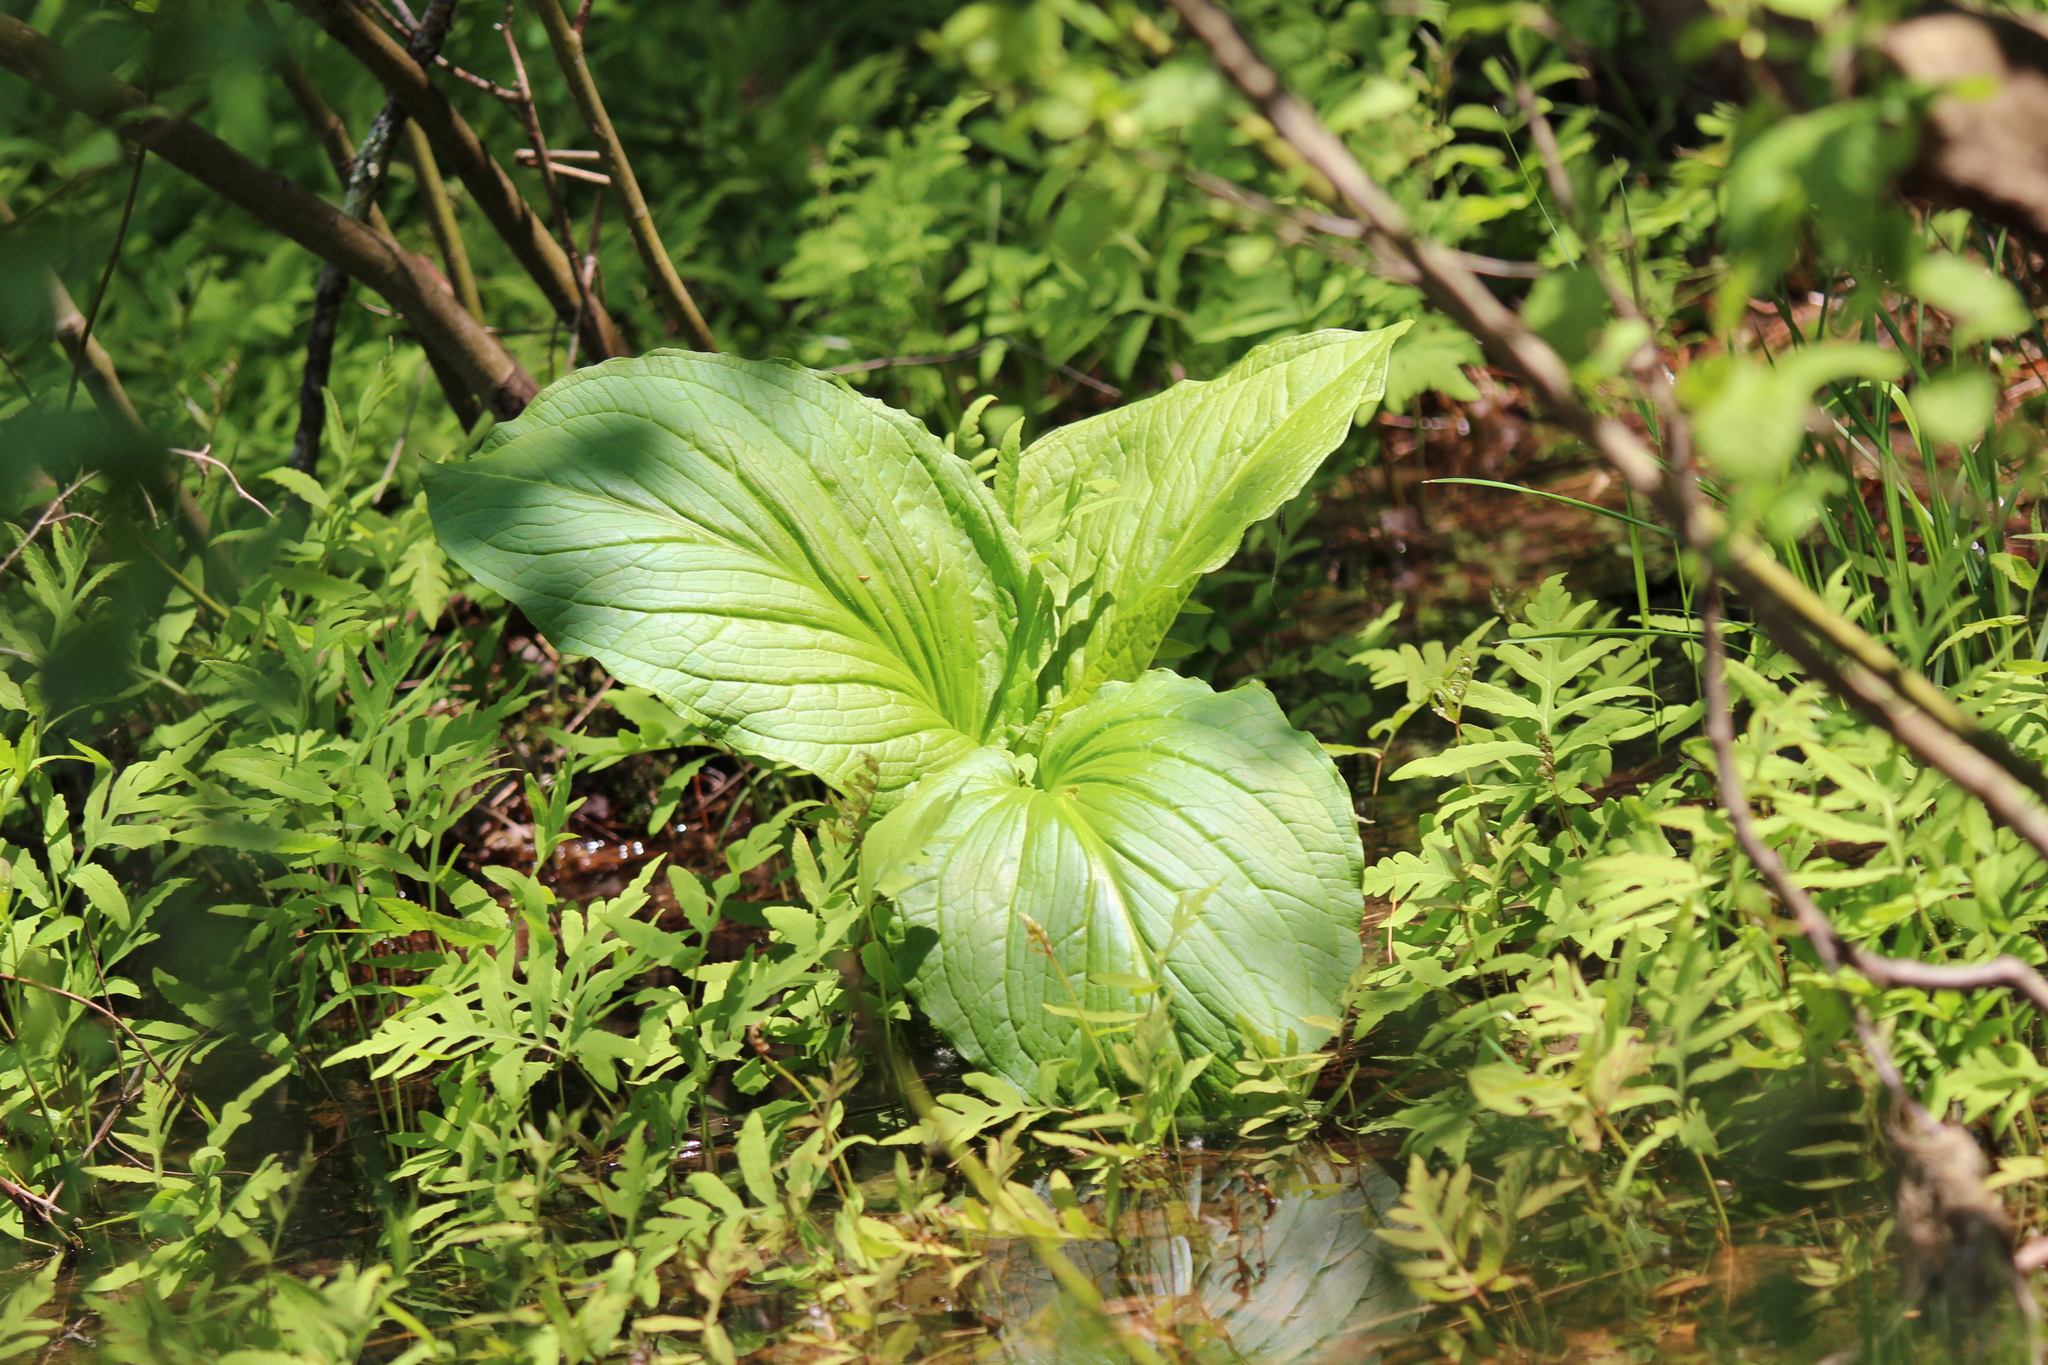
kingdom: Plantae
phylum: Tracheophyta
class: Liliopsida
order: Alismatales
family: Araceae
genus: Symplocarpus
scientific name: Symplocarpus foetidus
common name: Eastern skunk cabbage
